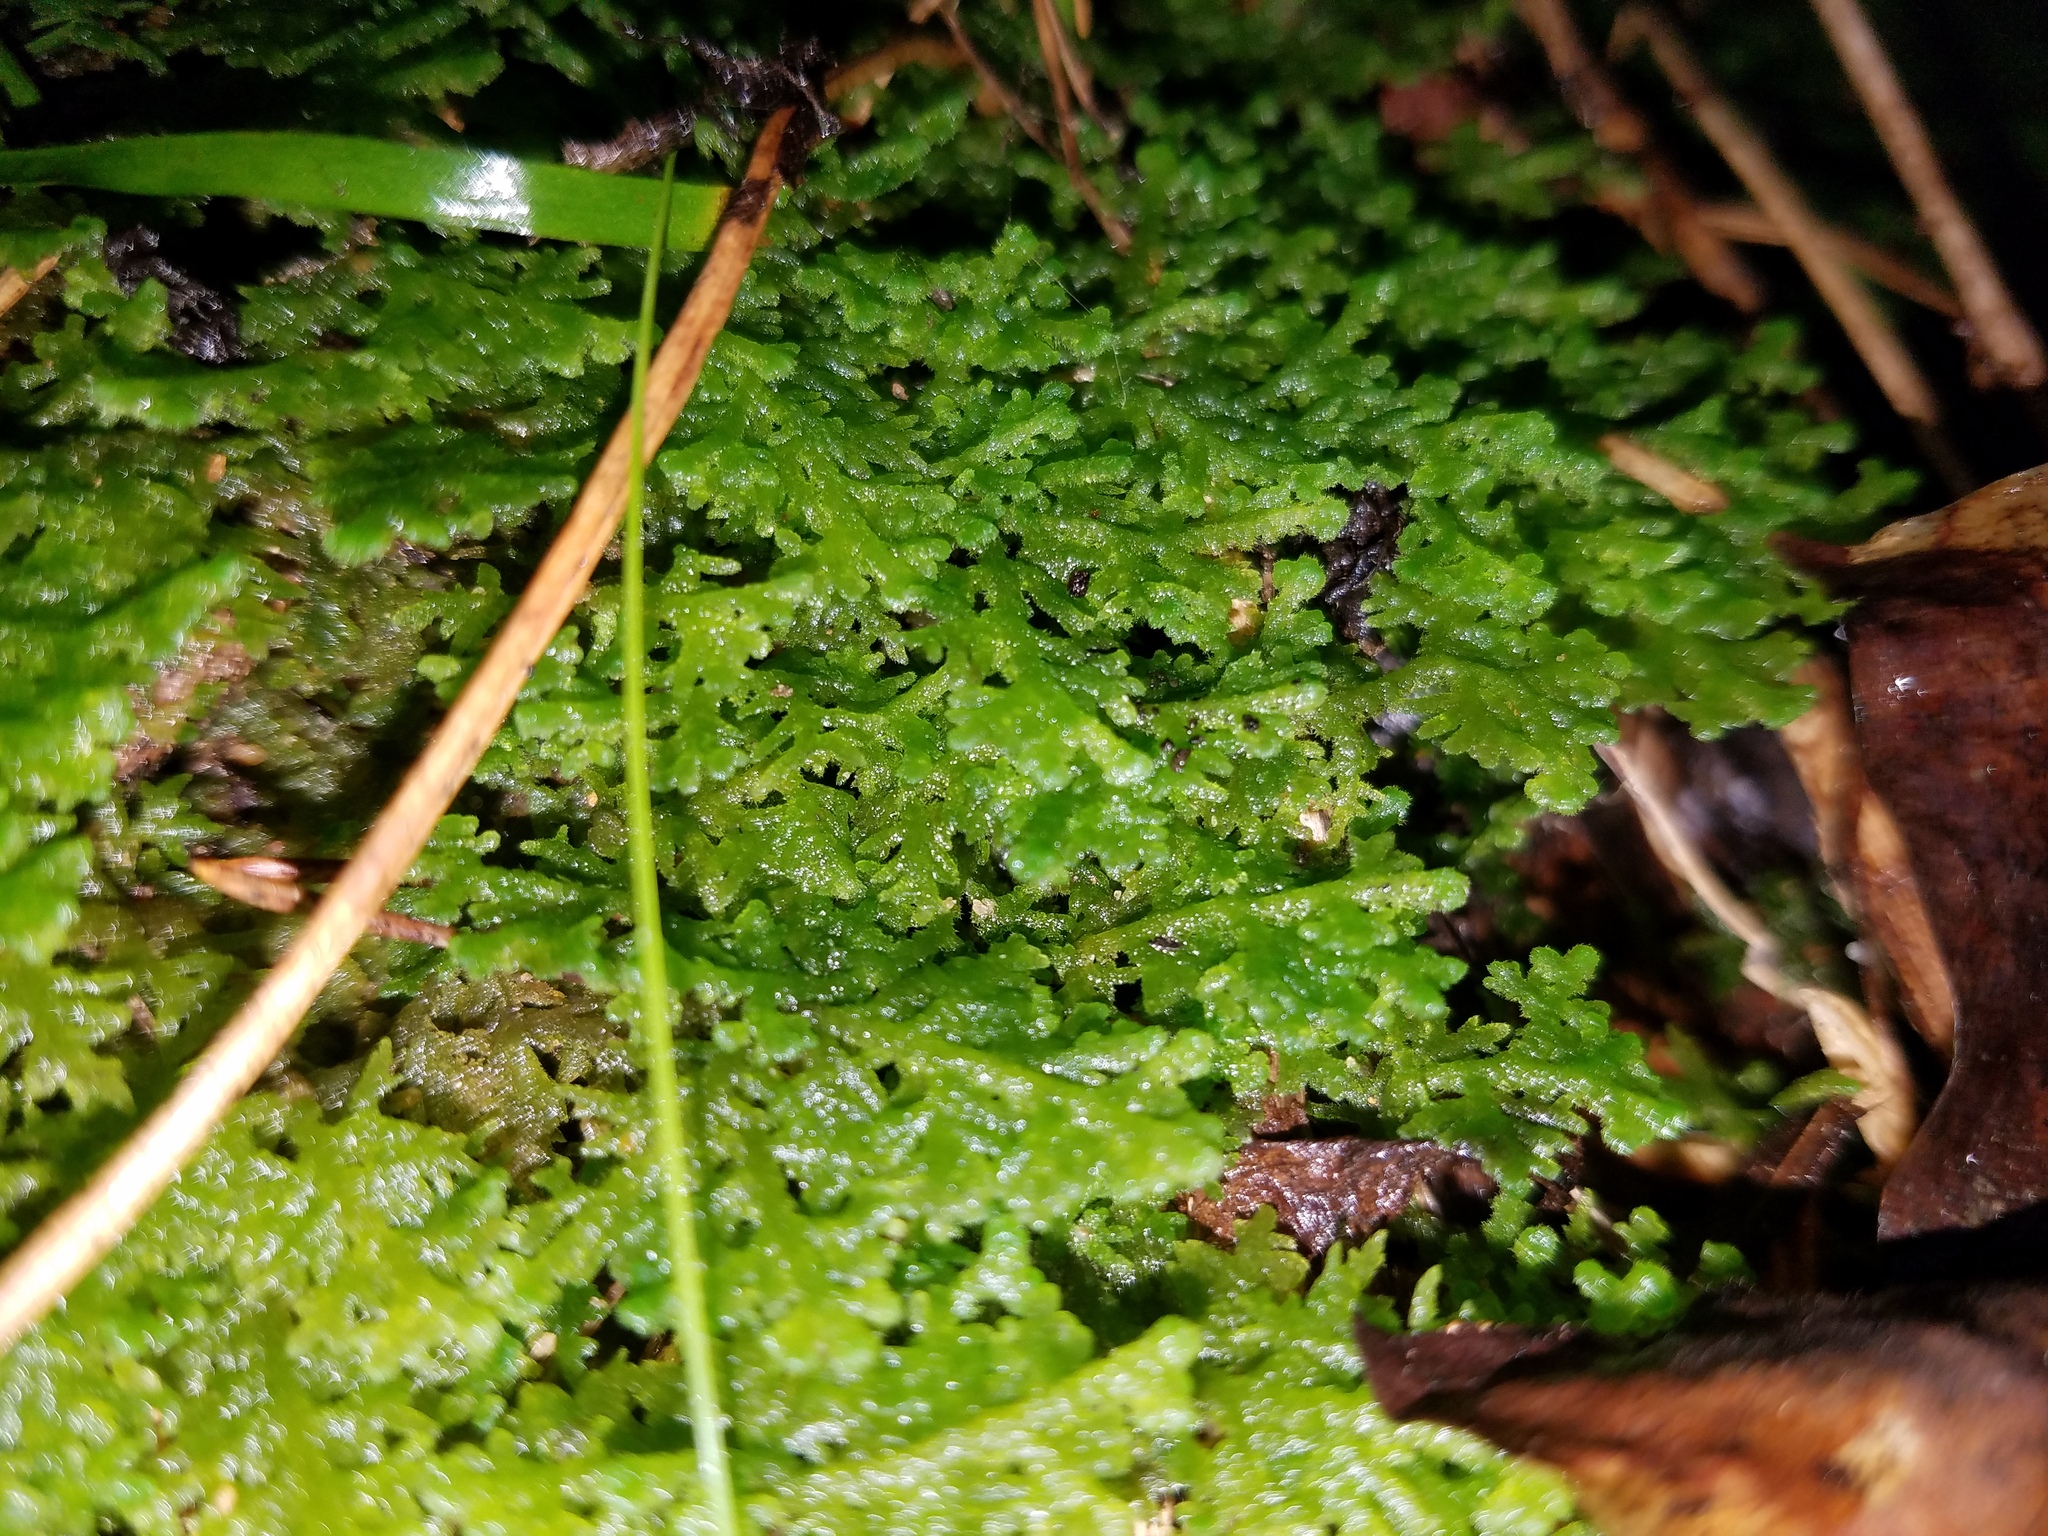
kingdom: Plantae
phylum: Marchantiophyta
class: Jungermanniopsida
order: Jungermanniales
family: Trichocoleaceae
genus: Trichocolea
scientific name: Trichocolea tomentella
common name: Woolly liverwort
